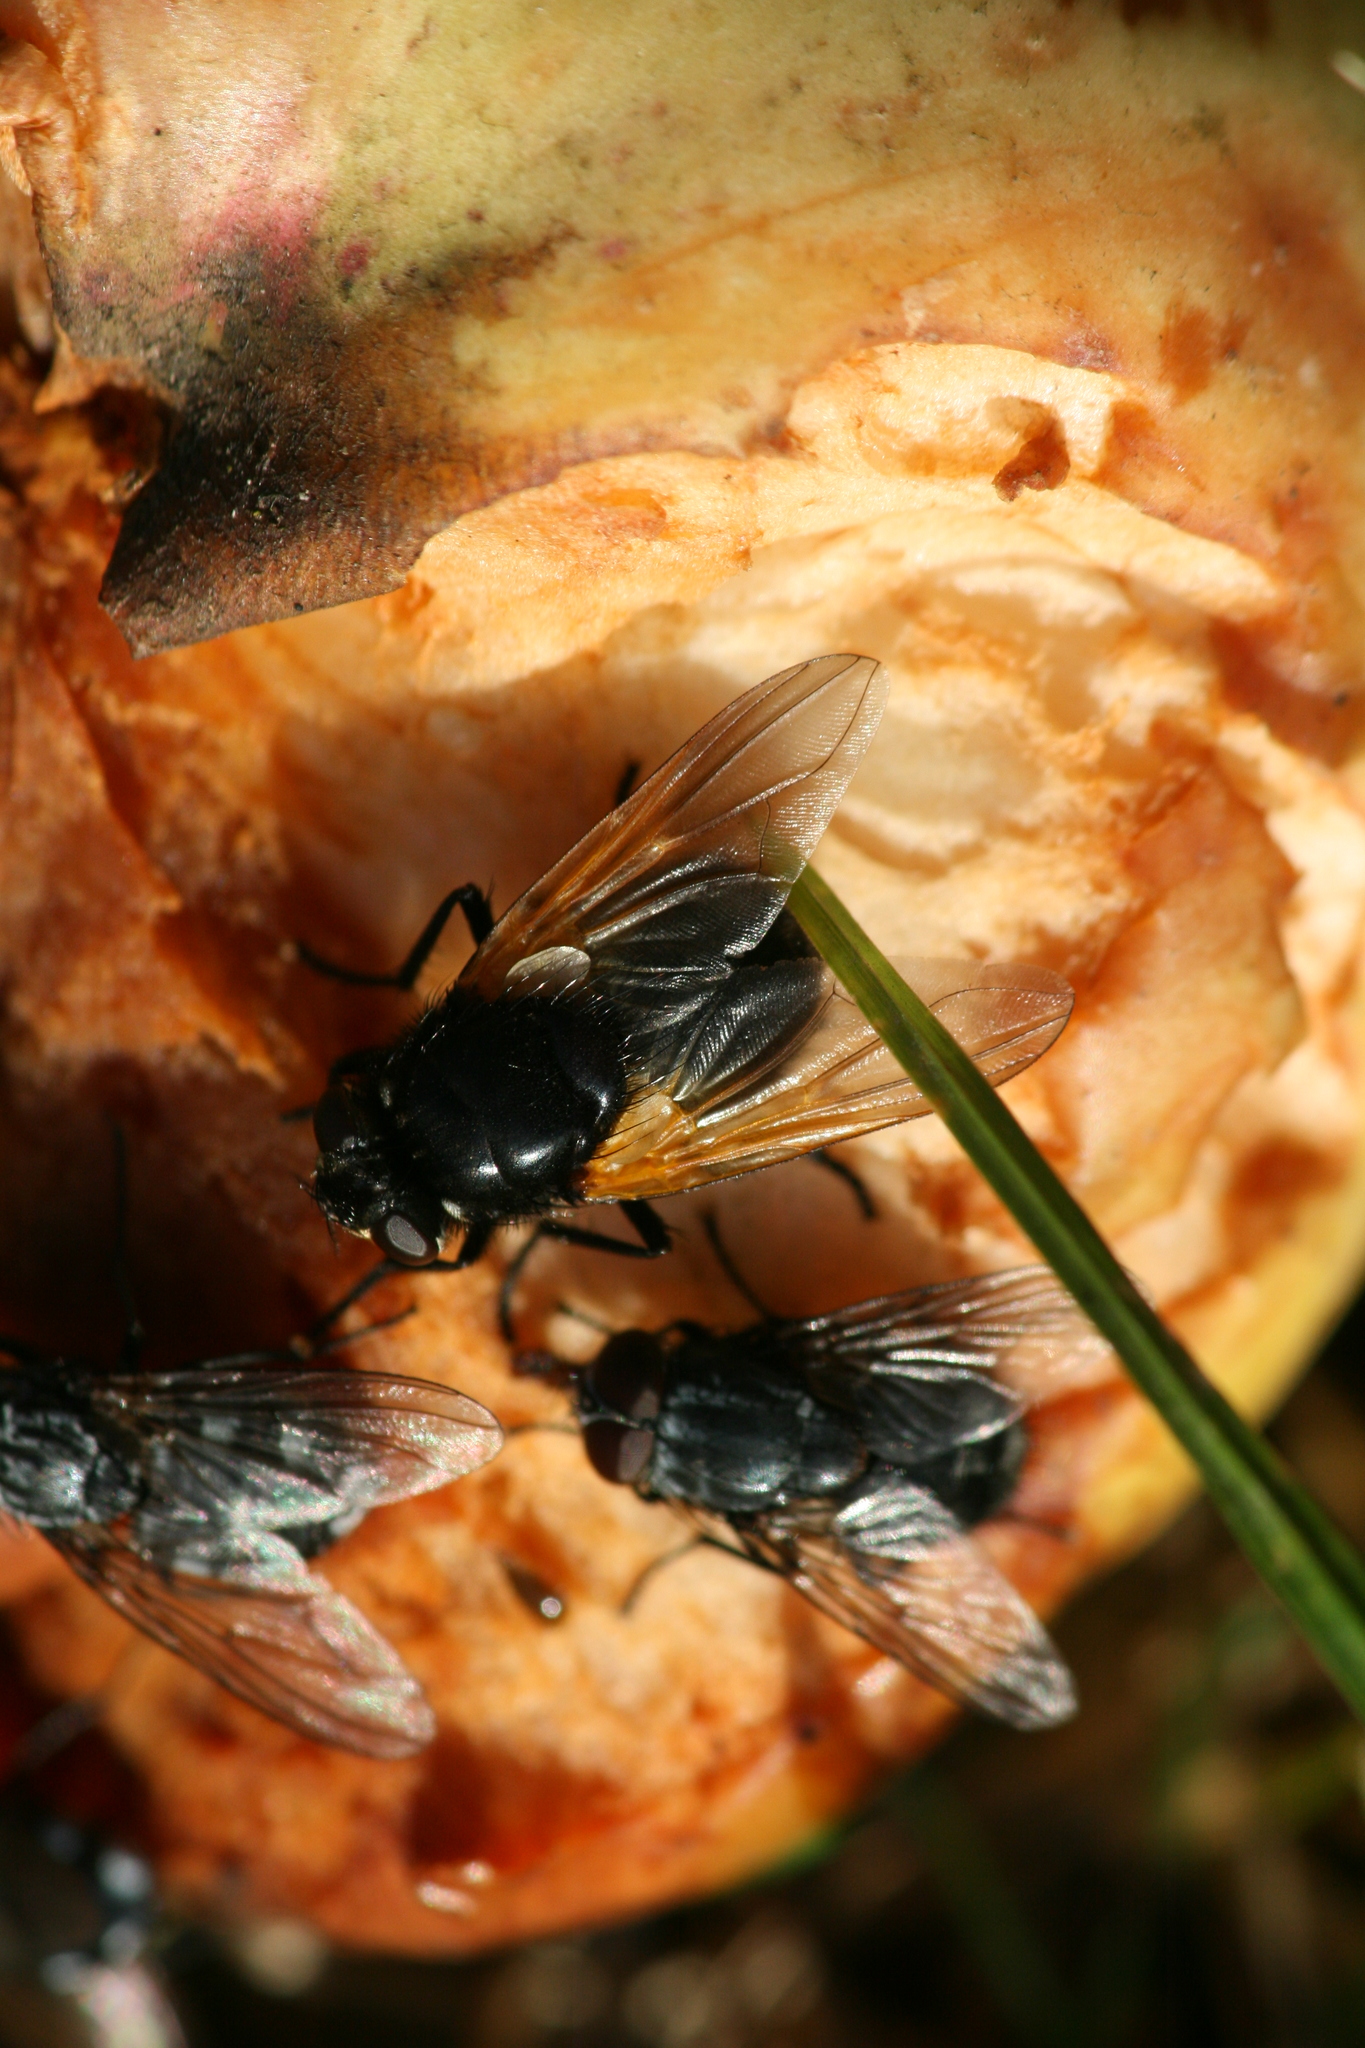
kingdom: Animalia
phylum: Arthropoda
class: Insecta
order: Diptera
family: Muscidae
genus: Mesembrina
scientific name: Mesembrina meridiana
